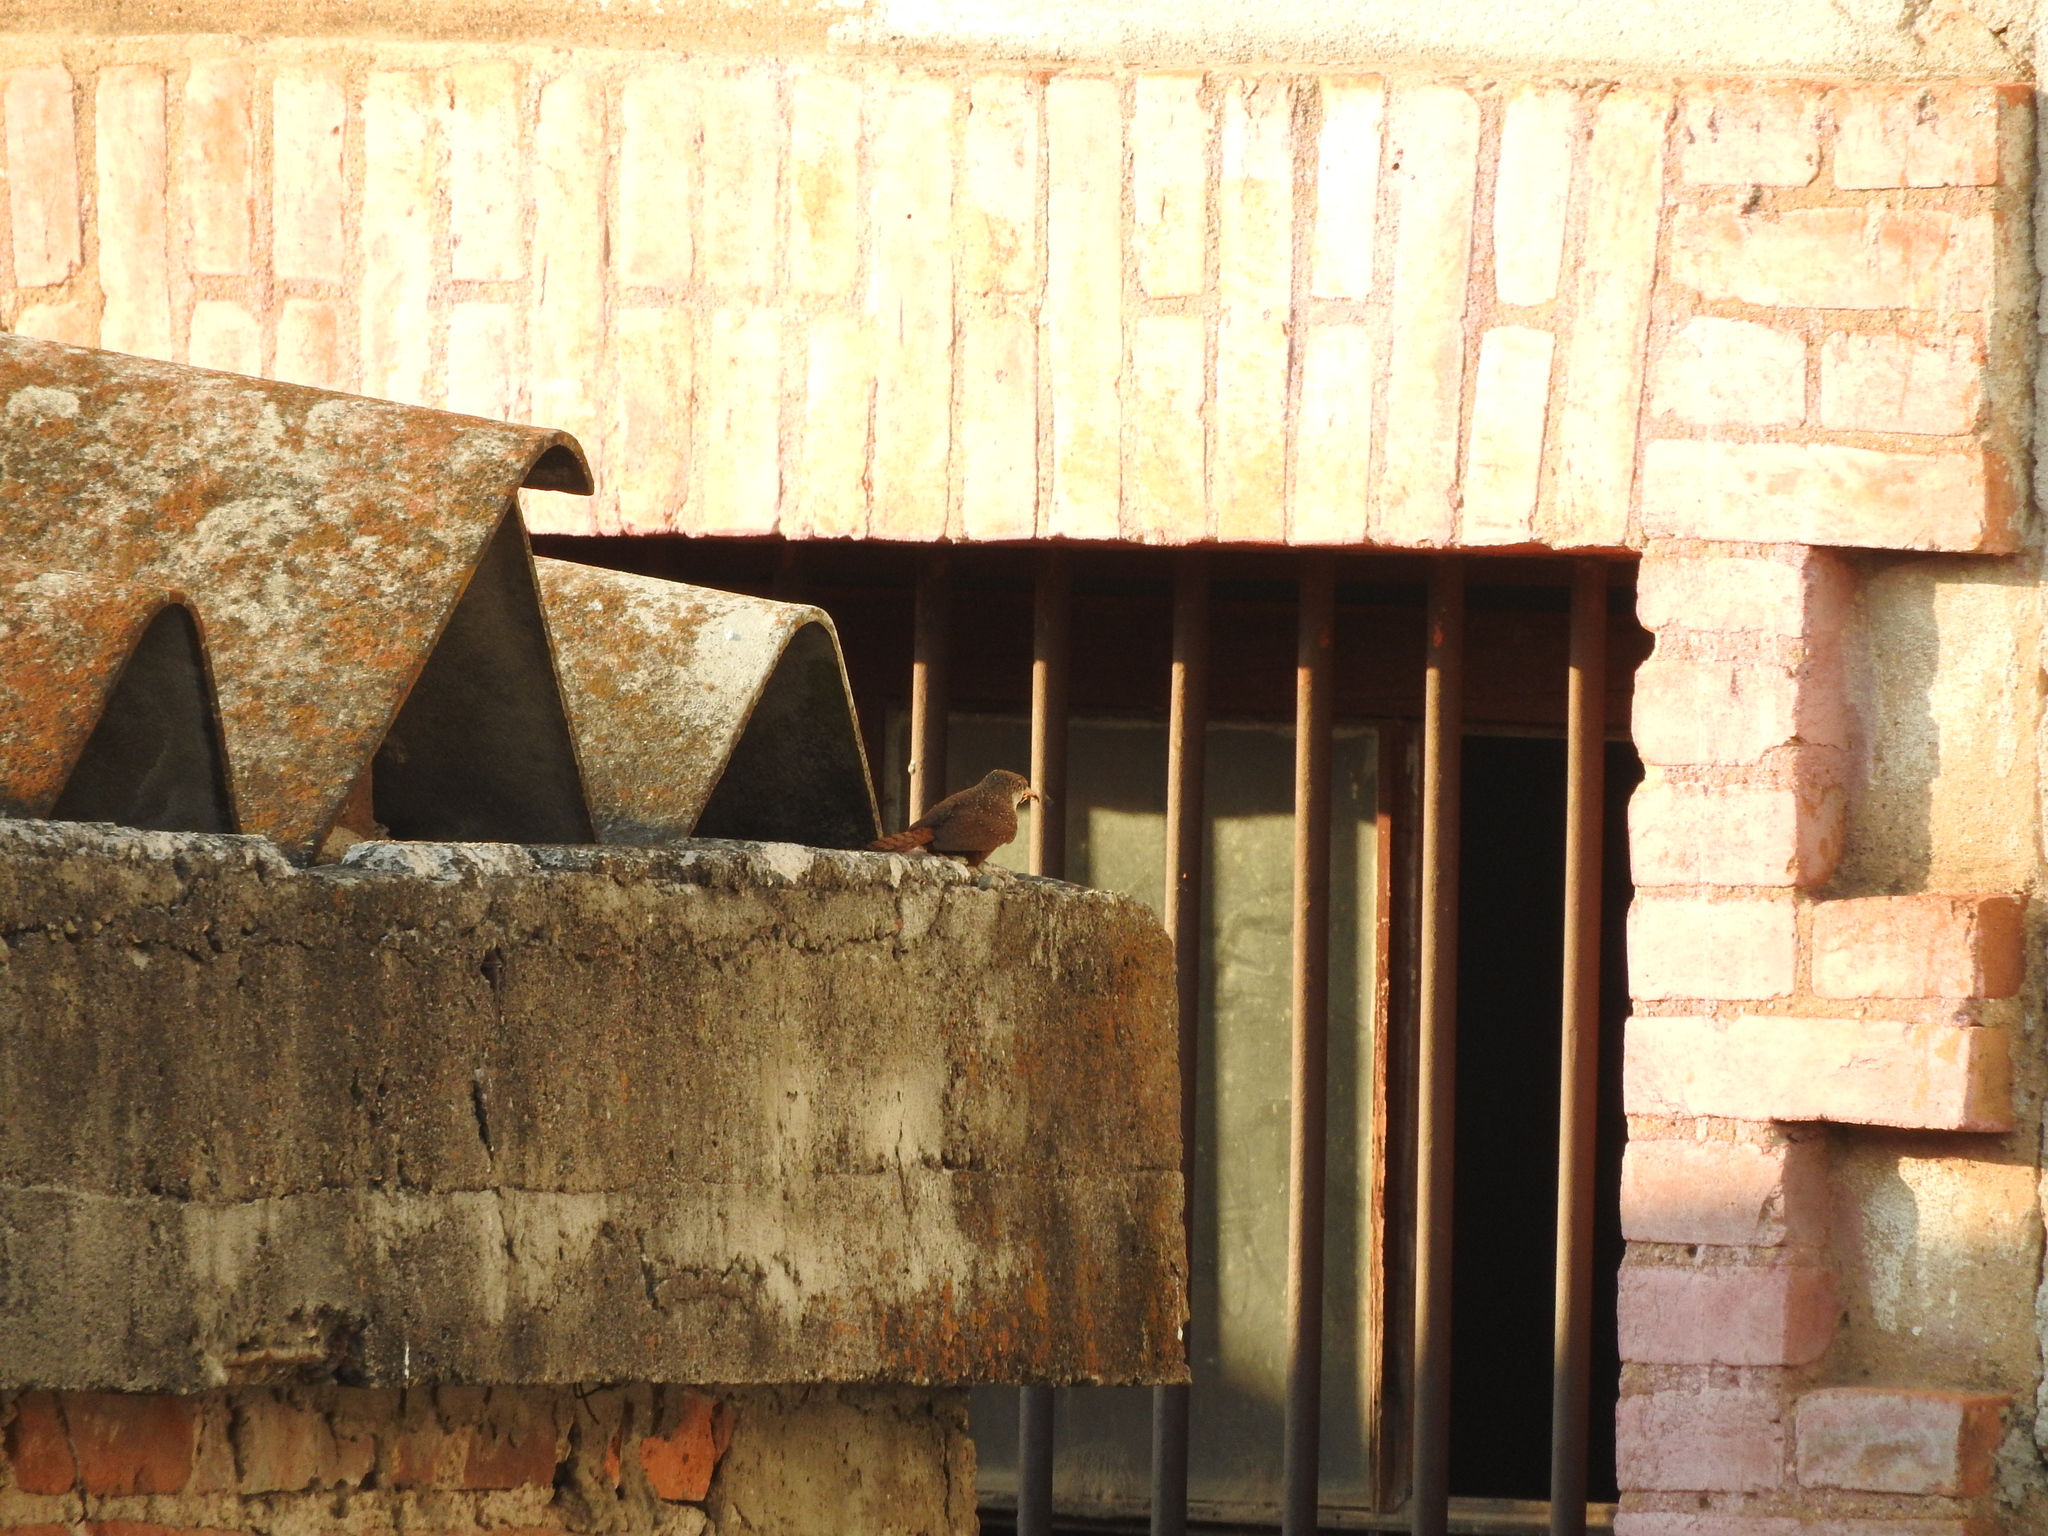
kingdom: Animalia
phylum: Chordata
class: Aves
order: Passeriformes
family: Troglodytidae
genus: Catherpes
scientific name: Catherpes mexicanus
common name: Canyon wren
